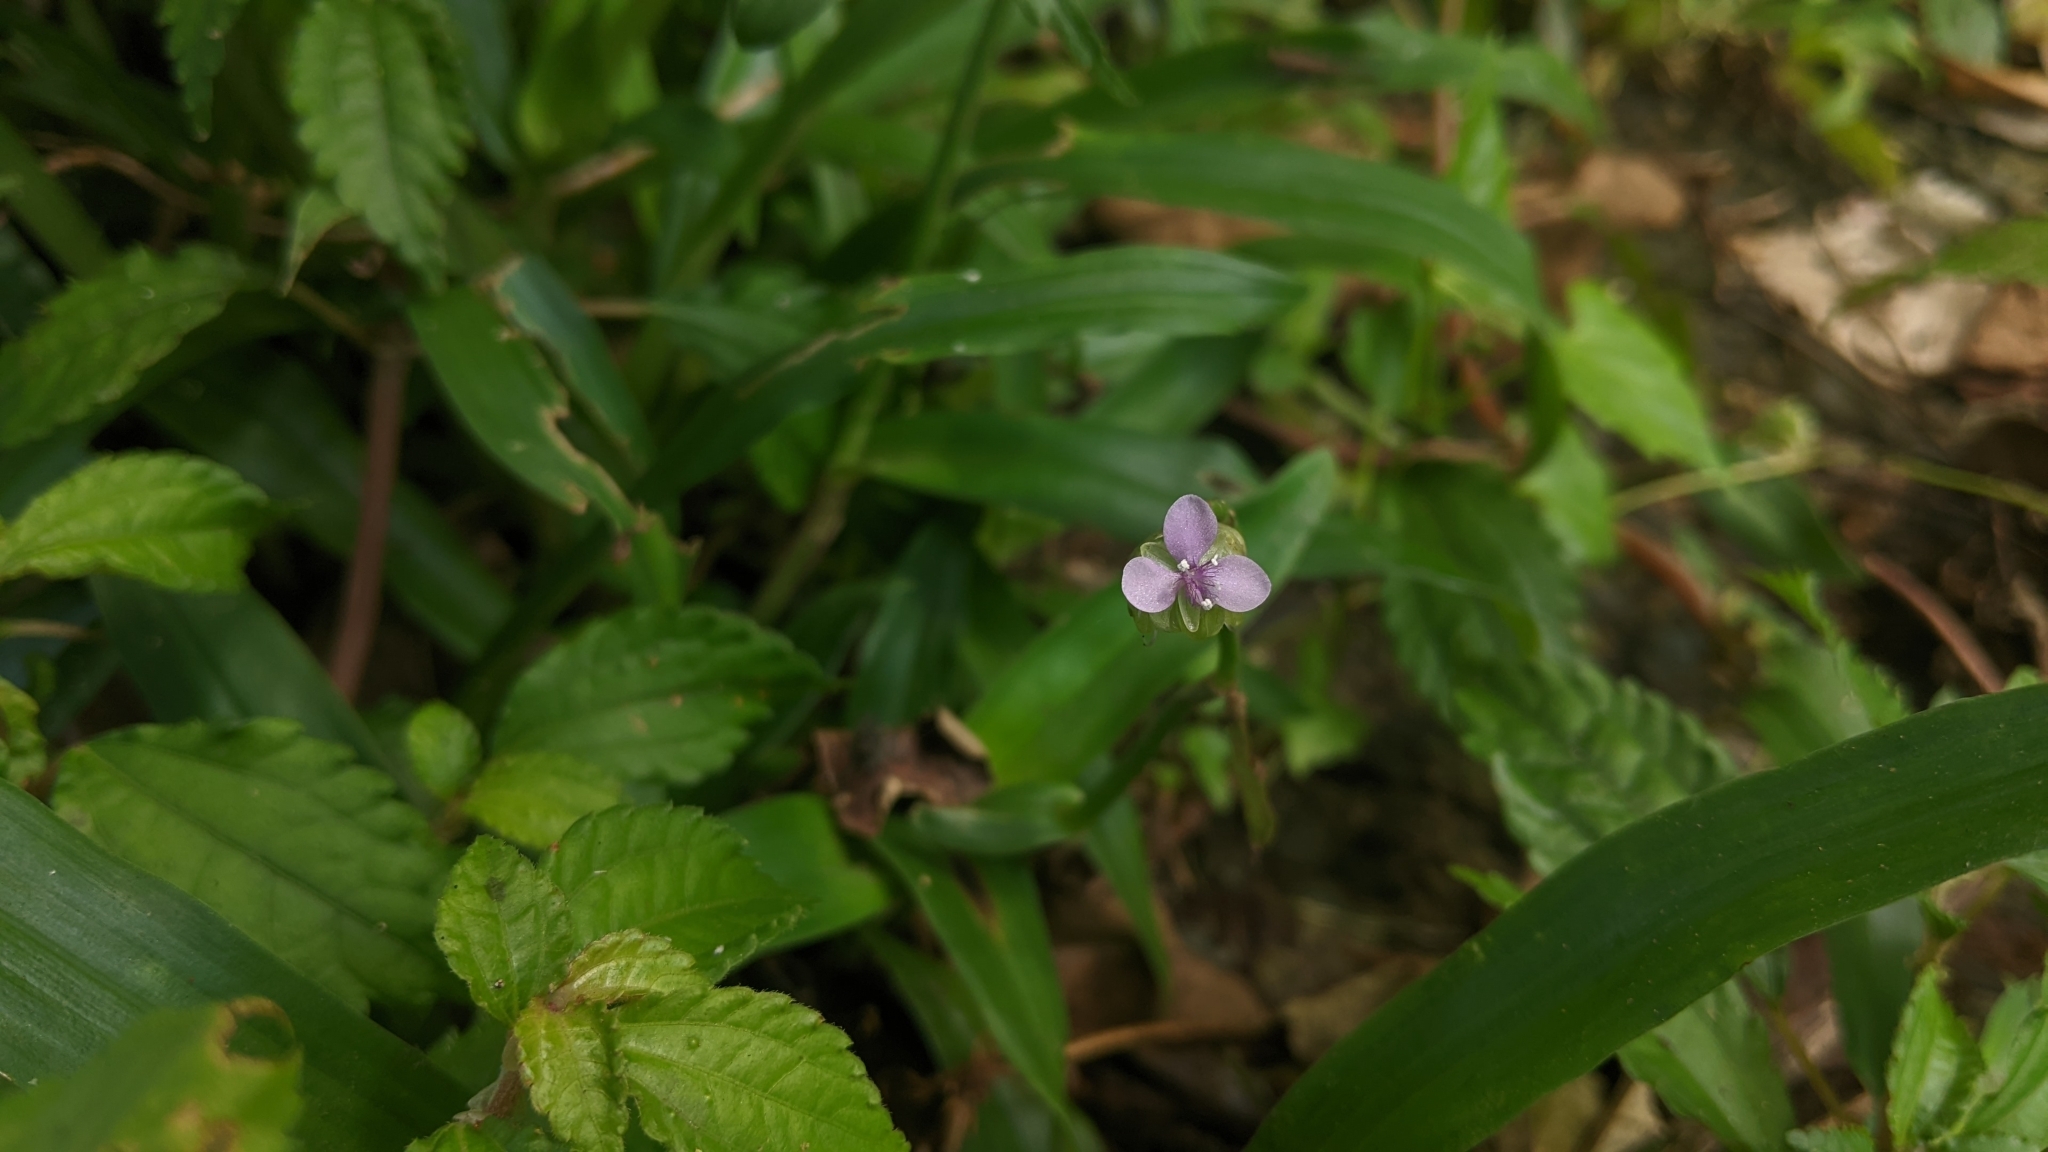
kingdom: Plantae
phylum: Tracheophyta
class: Liliopsida
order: Commelinales
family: Commelinaceae
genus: Murdannia
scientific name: Murdannia loriformis
